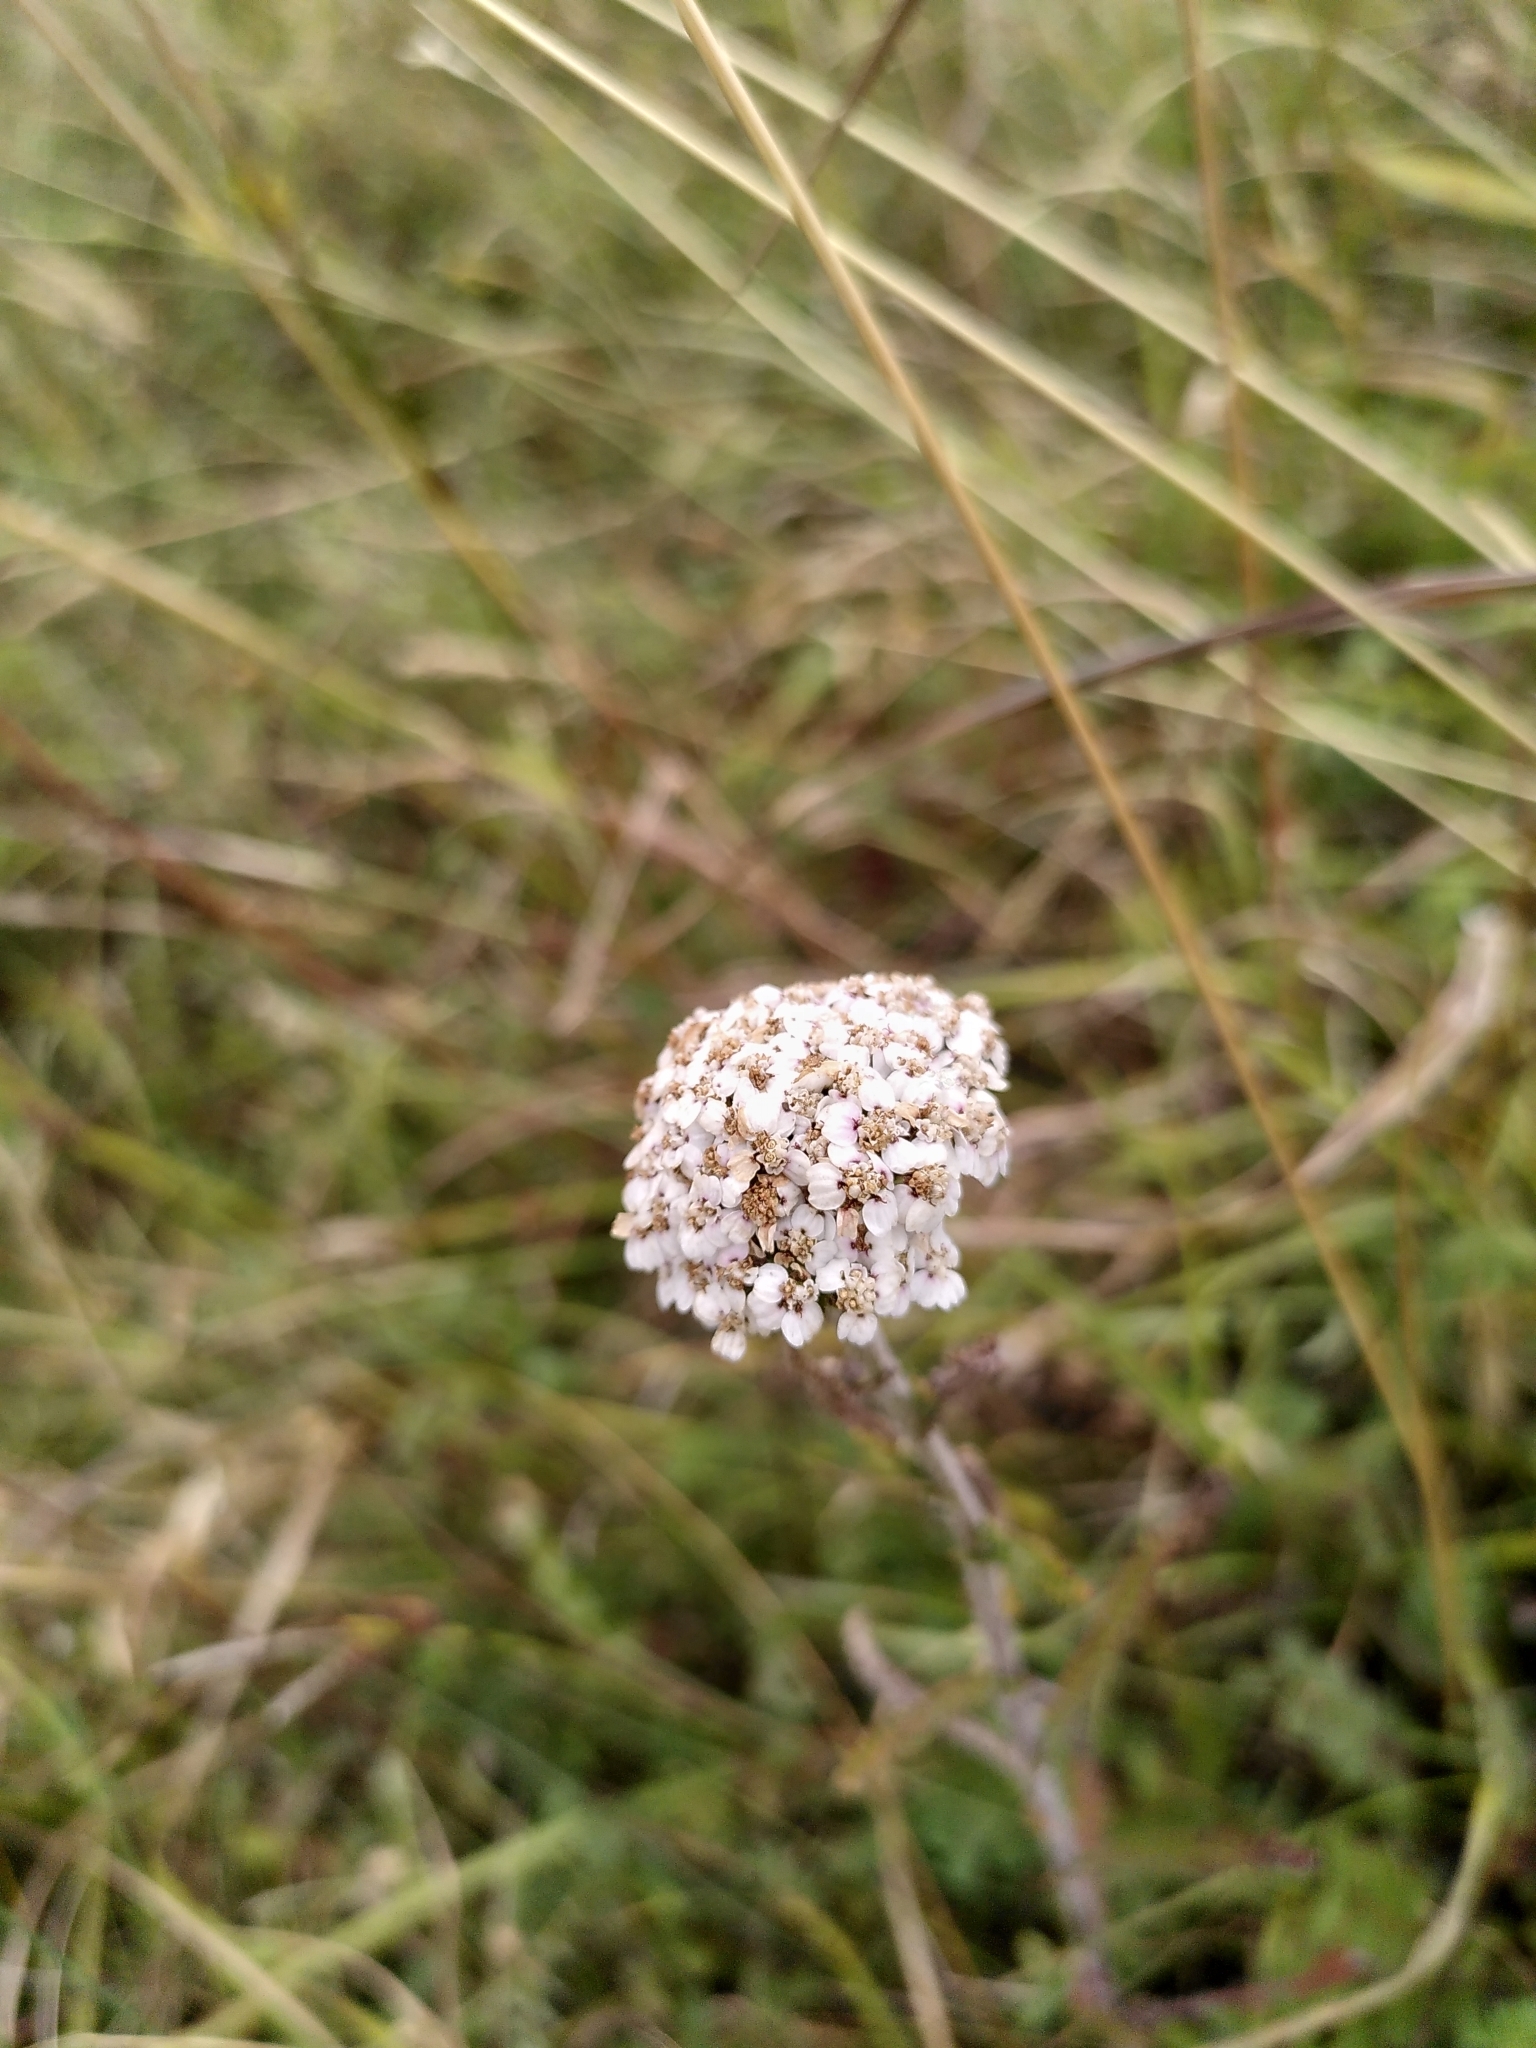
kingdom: Plantae
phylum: Tracheophyta
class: Magnoliopsida
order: Asterales
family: Asteraceae
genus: Achillea
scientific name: Achillea millefolium
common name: Yarrow
